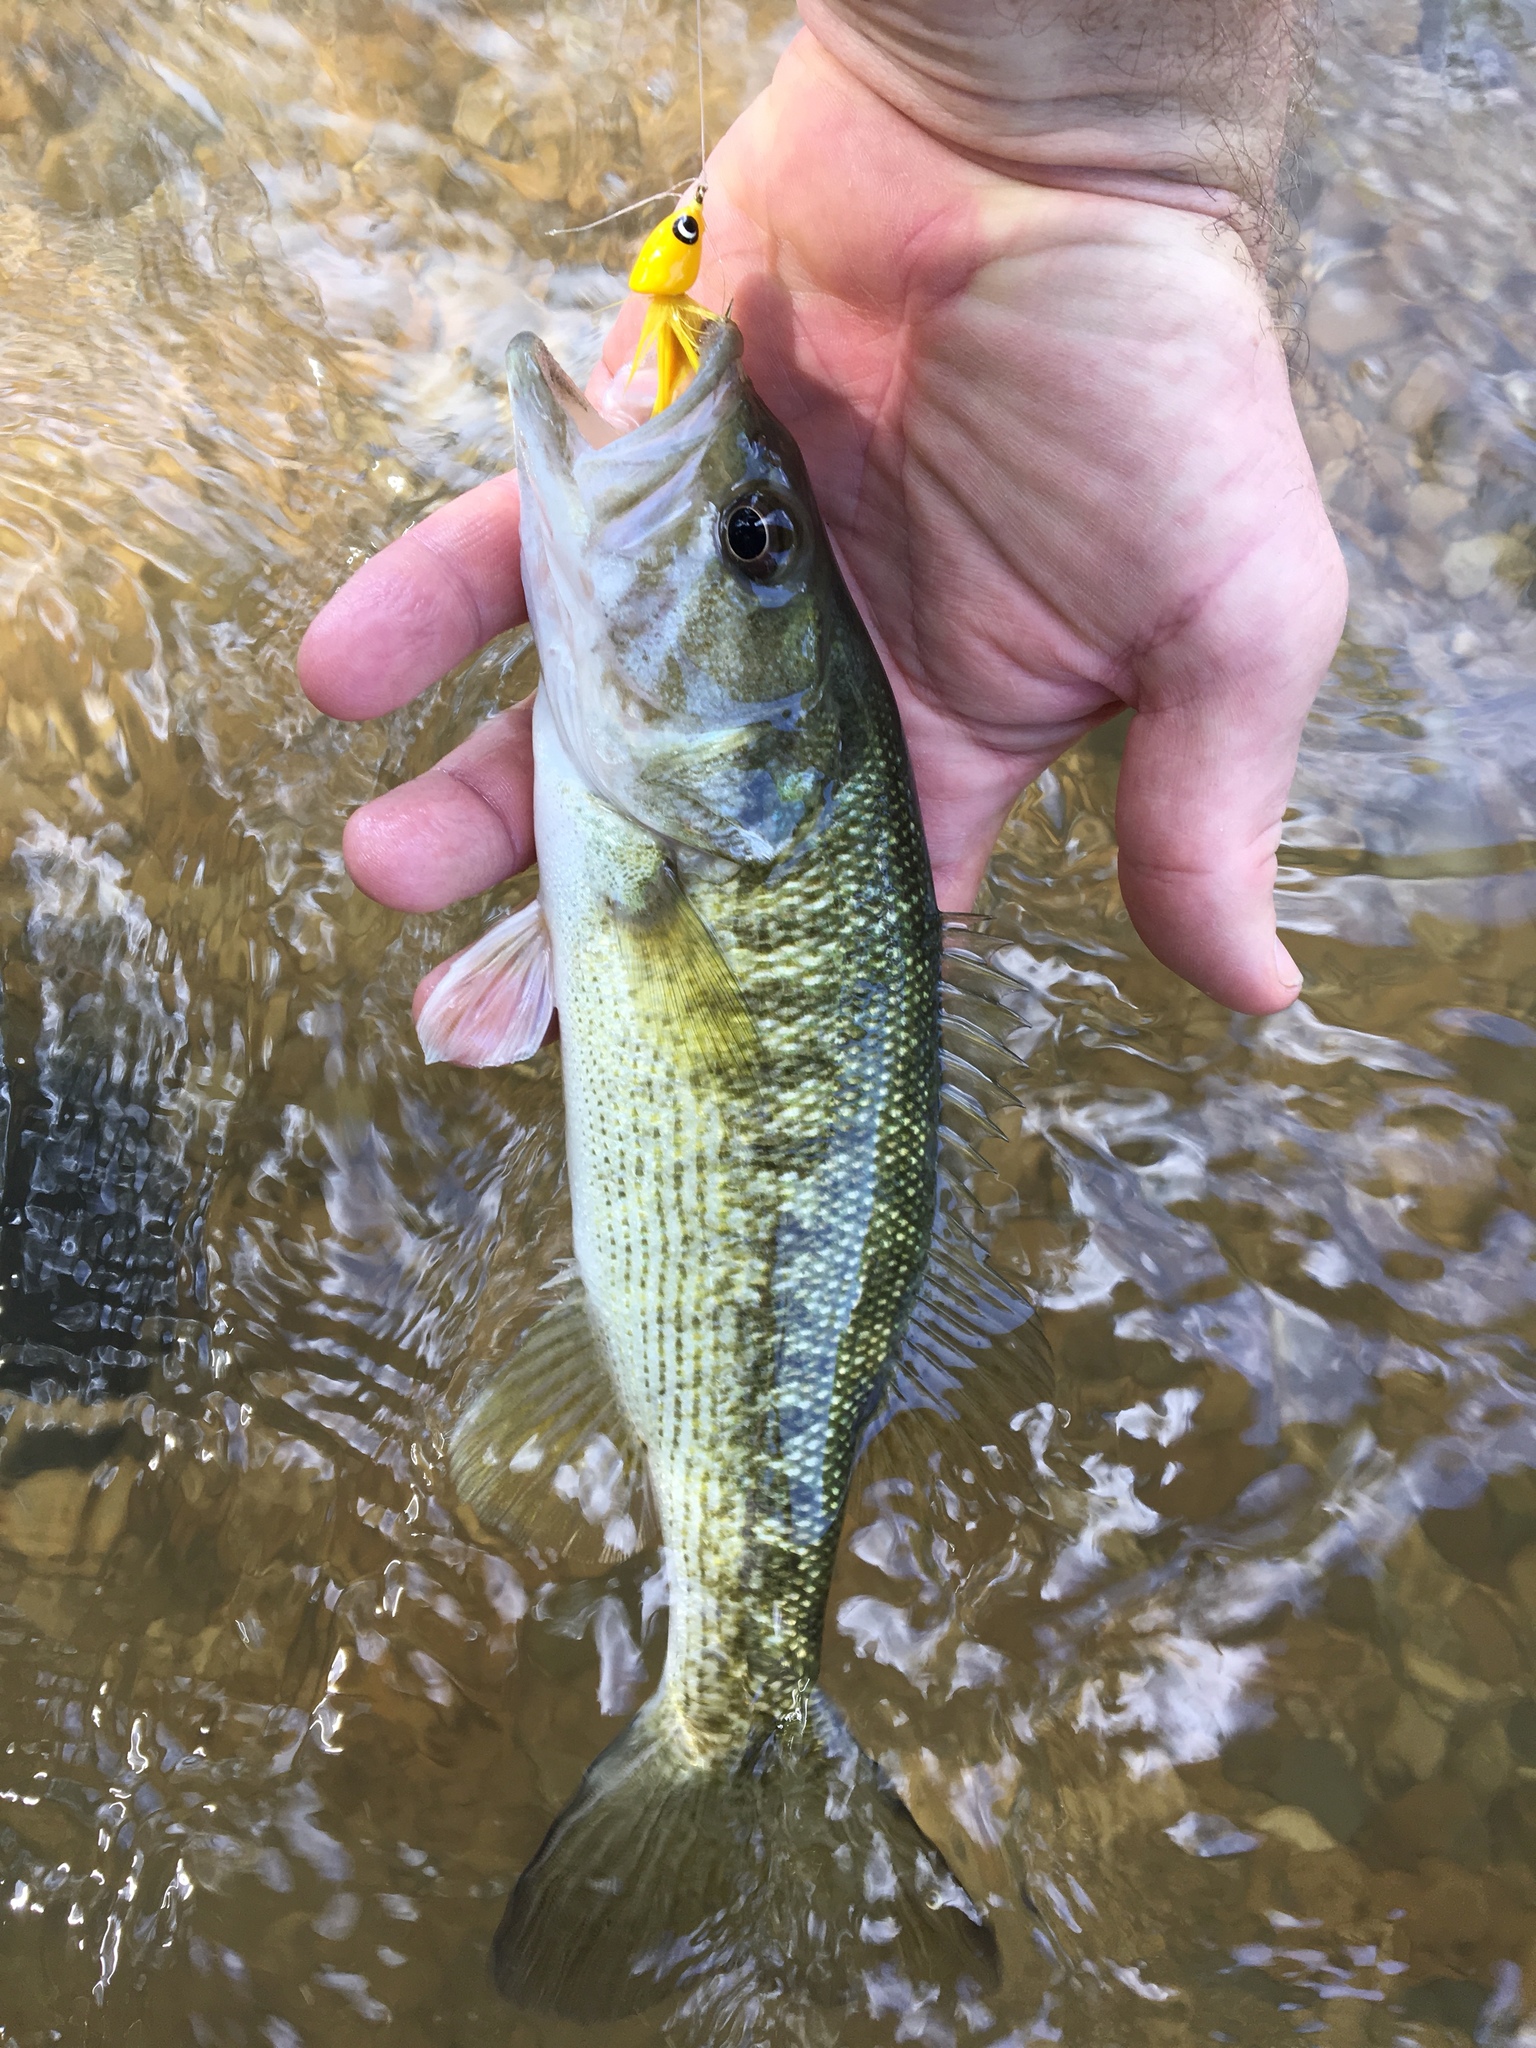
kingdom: Animalia
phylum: Chordata
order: Perciformes
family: Centrarchidae
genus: Micropterus
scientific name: Micropterus treculii
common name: Guadalupe bass
